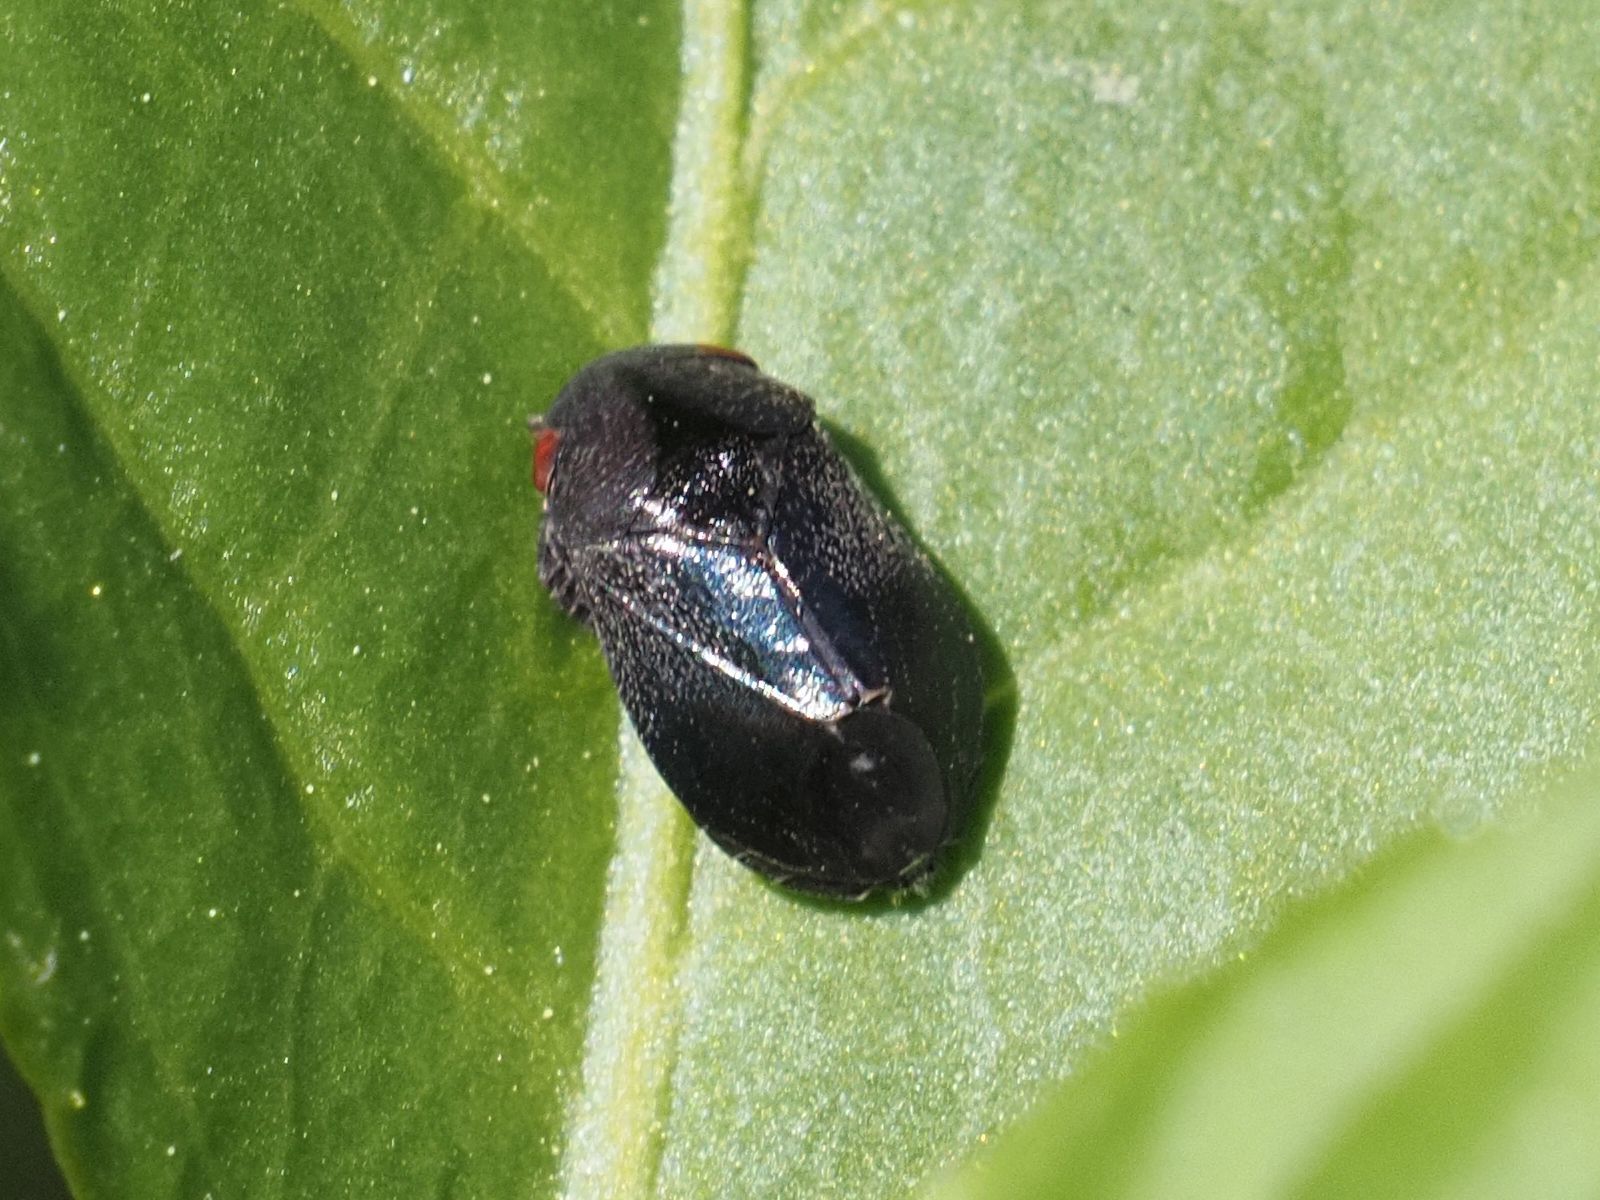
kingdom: Animalia
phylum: Arthropoda
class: Insecta
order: Hemiptera
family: Cicadellidae
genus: Penthimia
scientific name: Penthimia nigra
